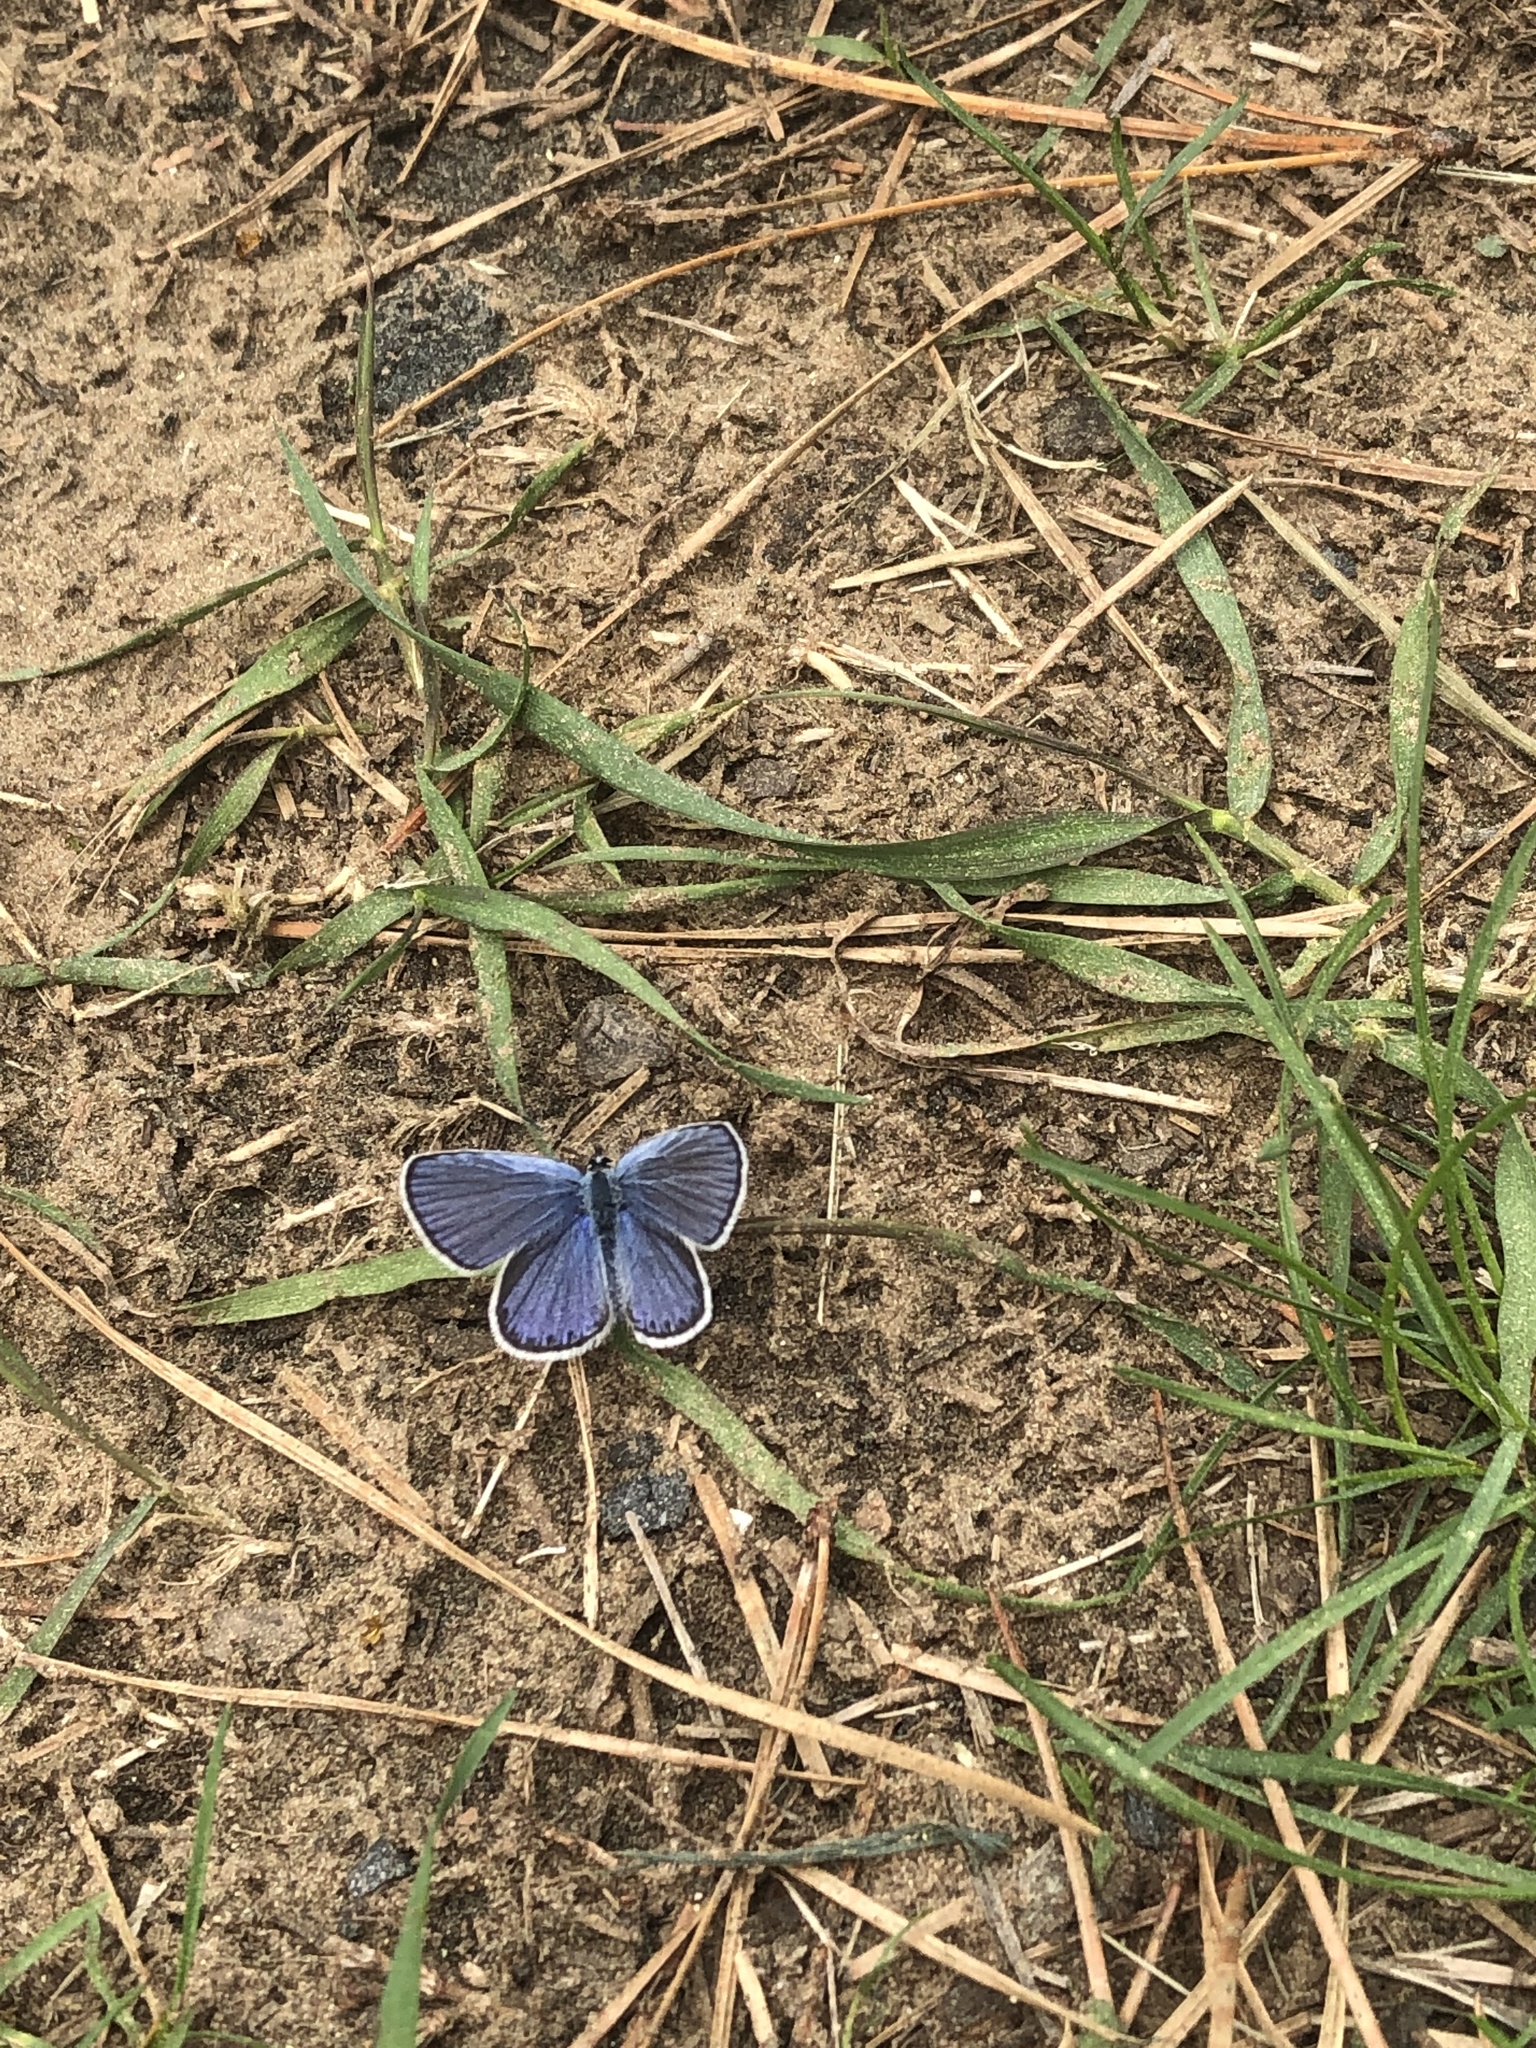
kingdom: Animalia
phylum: Arthropoda
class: Insecta
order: Lepidoptera
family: Lycaenidae
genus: Plebejus
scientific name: Plebejus samuelis
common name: Karner blue
